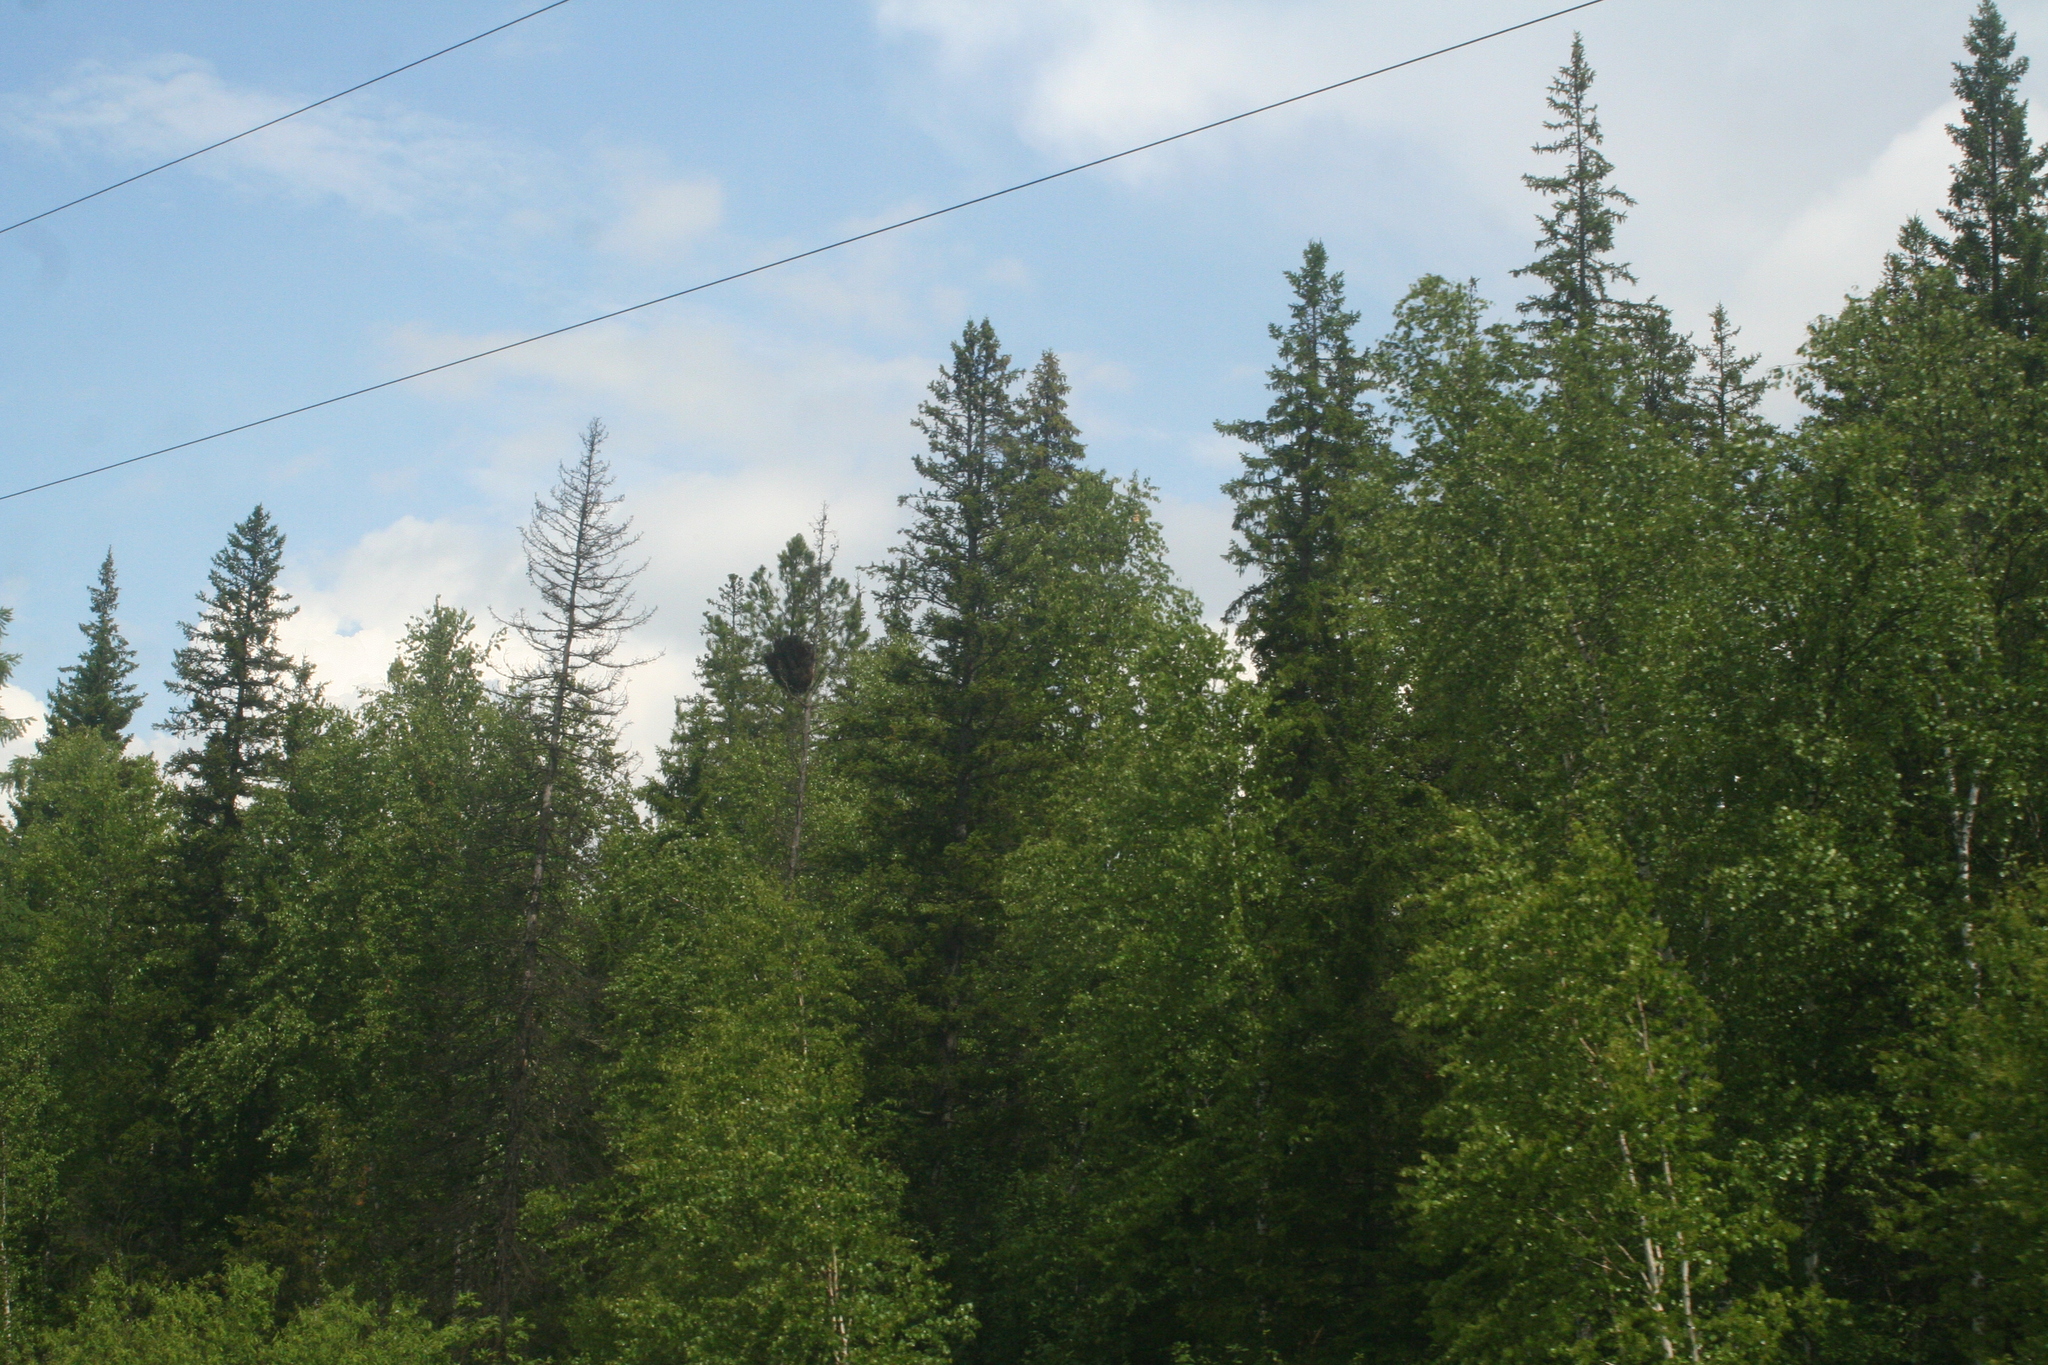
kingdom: Plantae
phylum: Tracheophyta
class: Pinopsida
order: Pinales
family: Pinaceae
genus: Picea
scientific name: Picea obovata
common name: Siberian spruce
